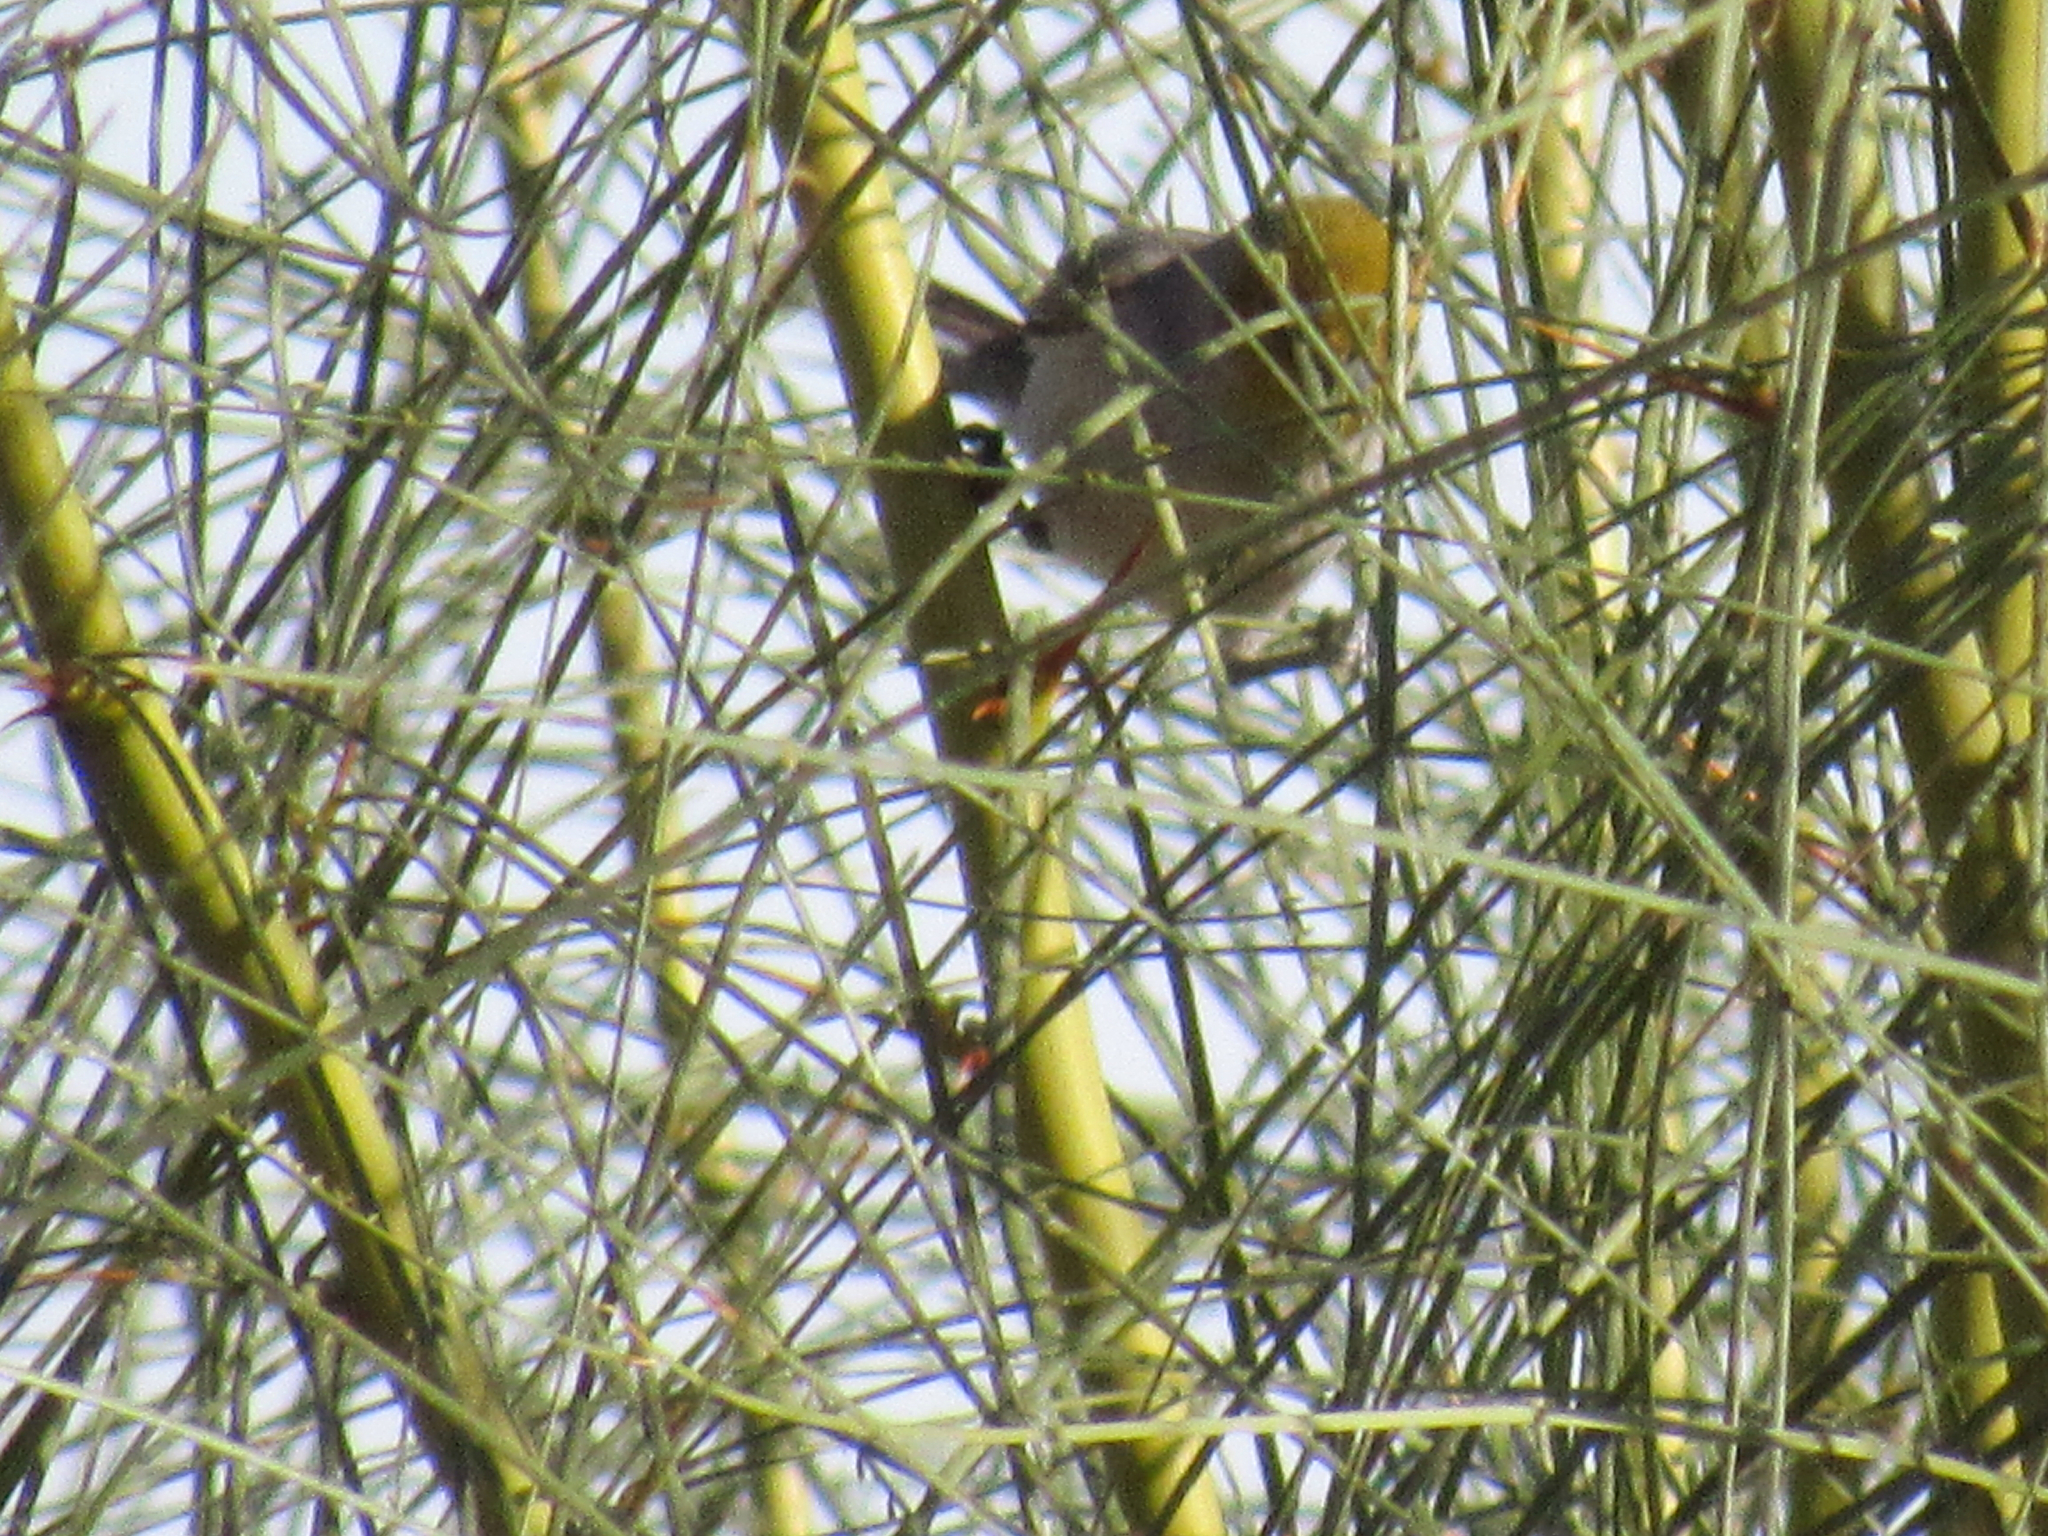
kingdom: Animalia
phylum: Chordata
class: Aves
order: Passeriformes
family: Remizidae
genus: Auriparus
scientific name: Auriparus flaviceps
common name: Verdin
